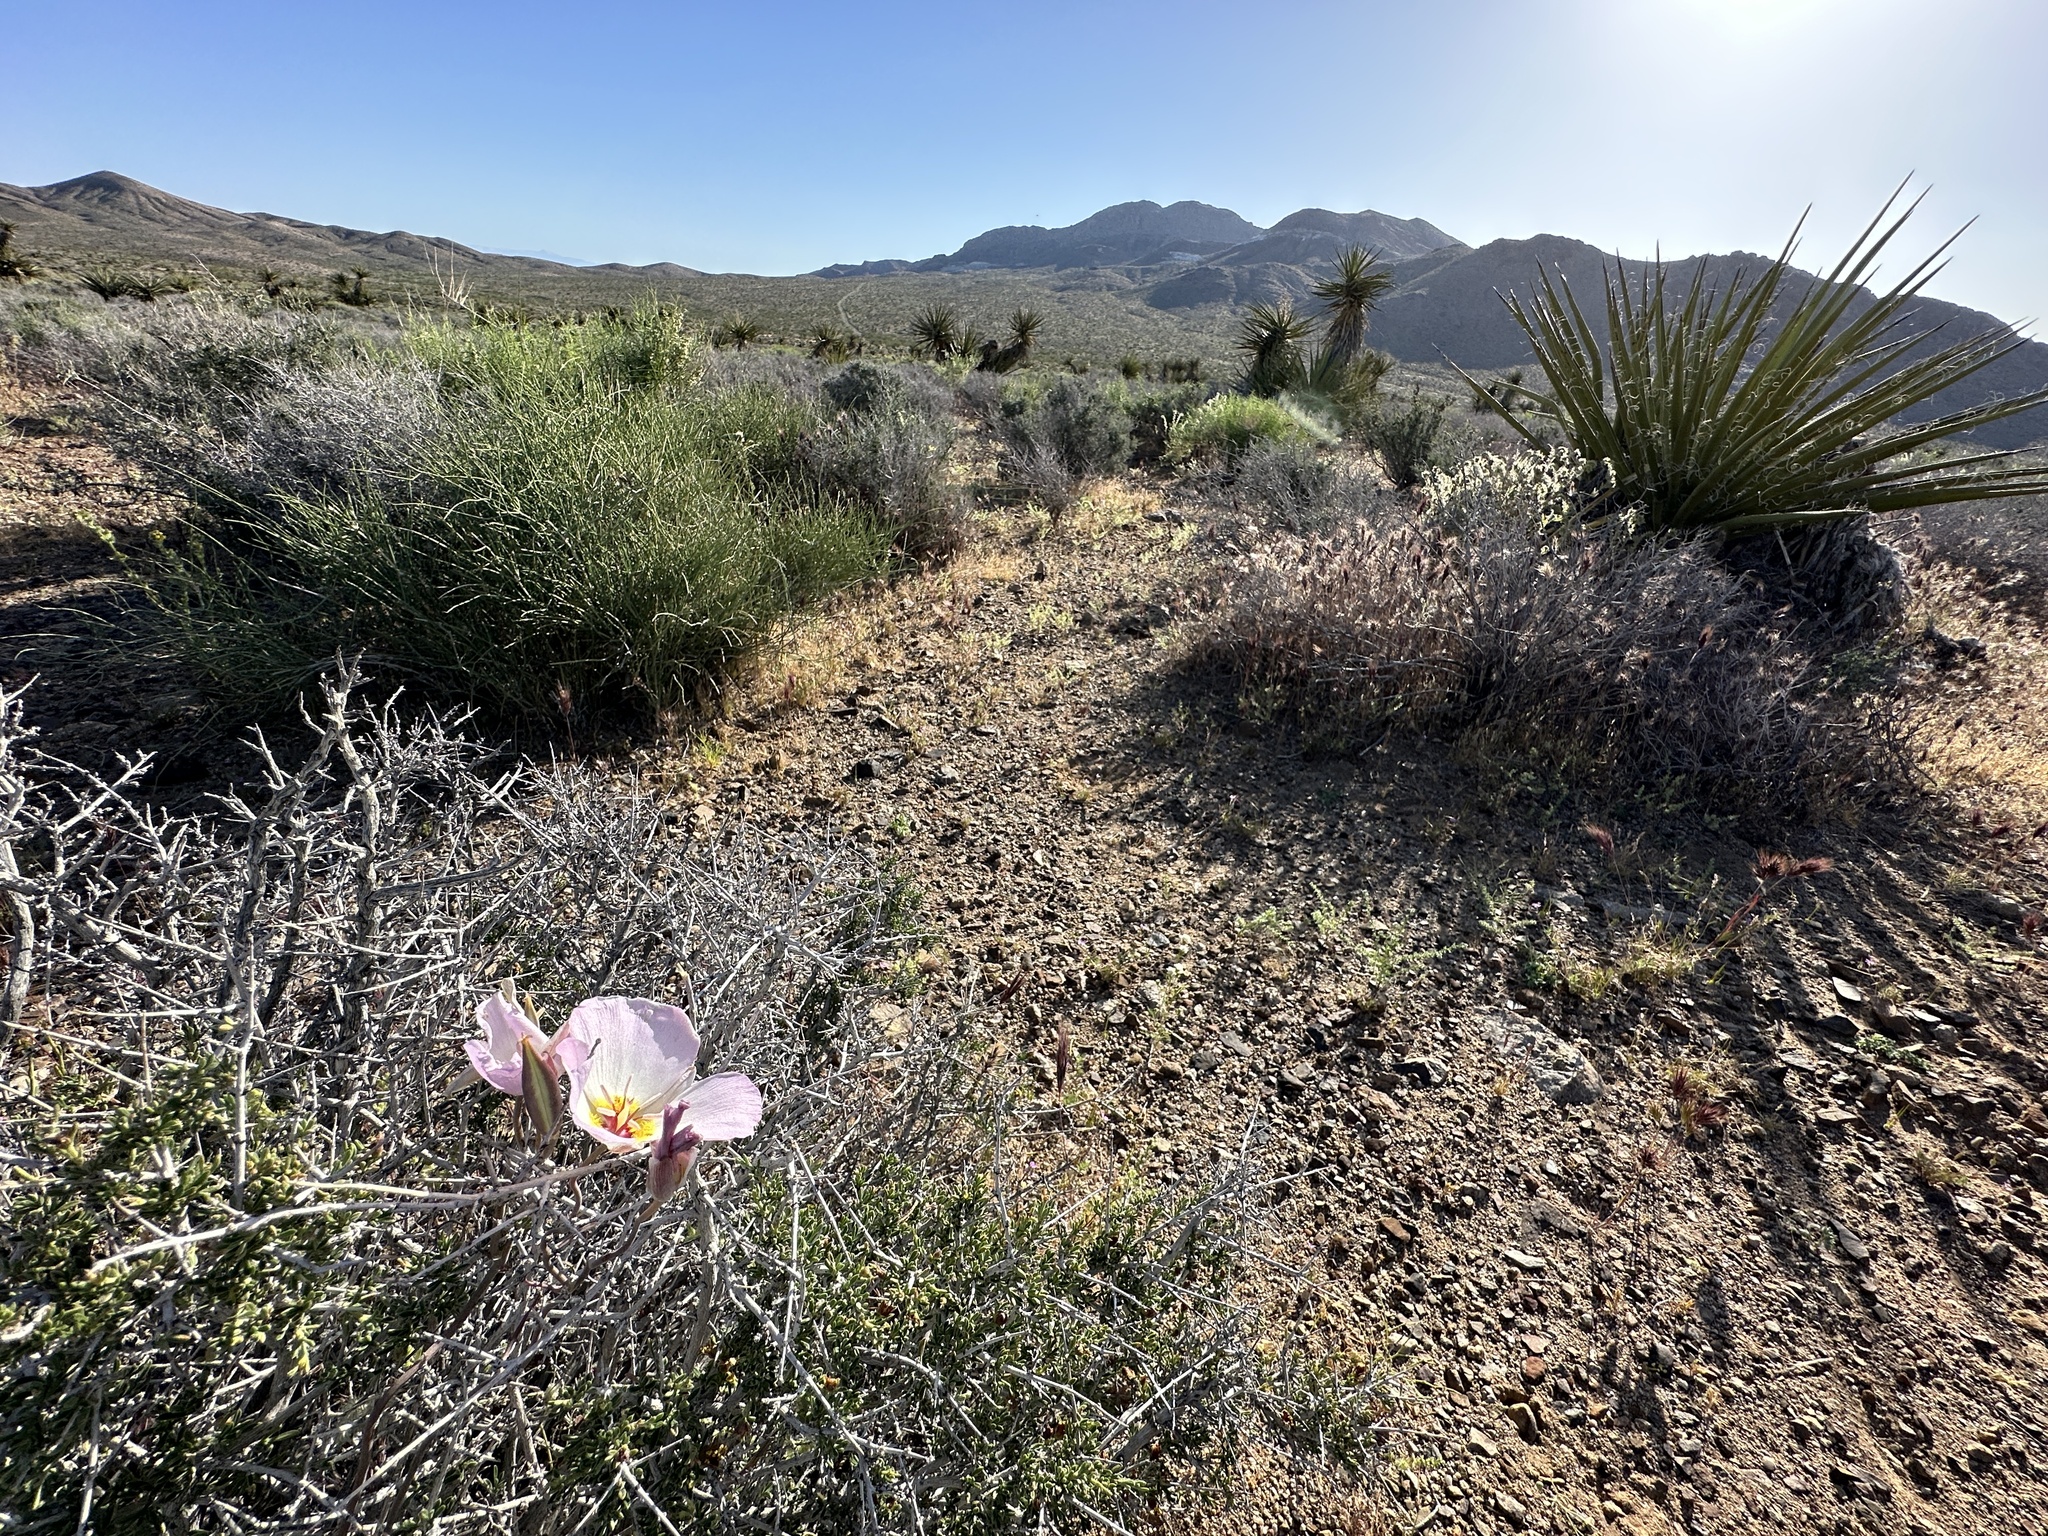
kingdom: Plantae
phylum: Tracheophyta
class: Liliopsida
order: Liliales
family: Liliaceae
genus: Calochortus
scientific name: Calochortus flexuosus
